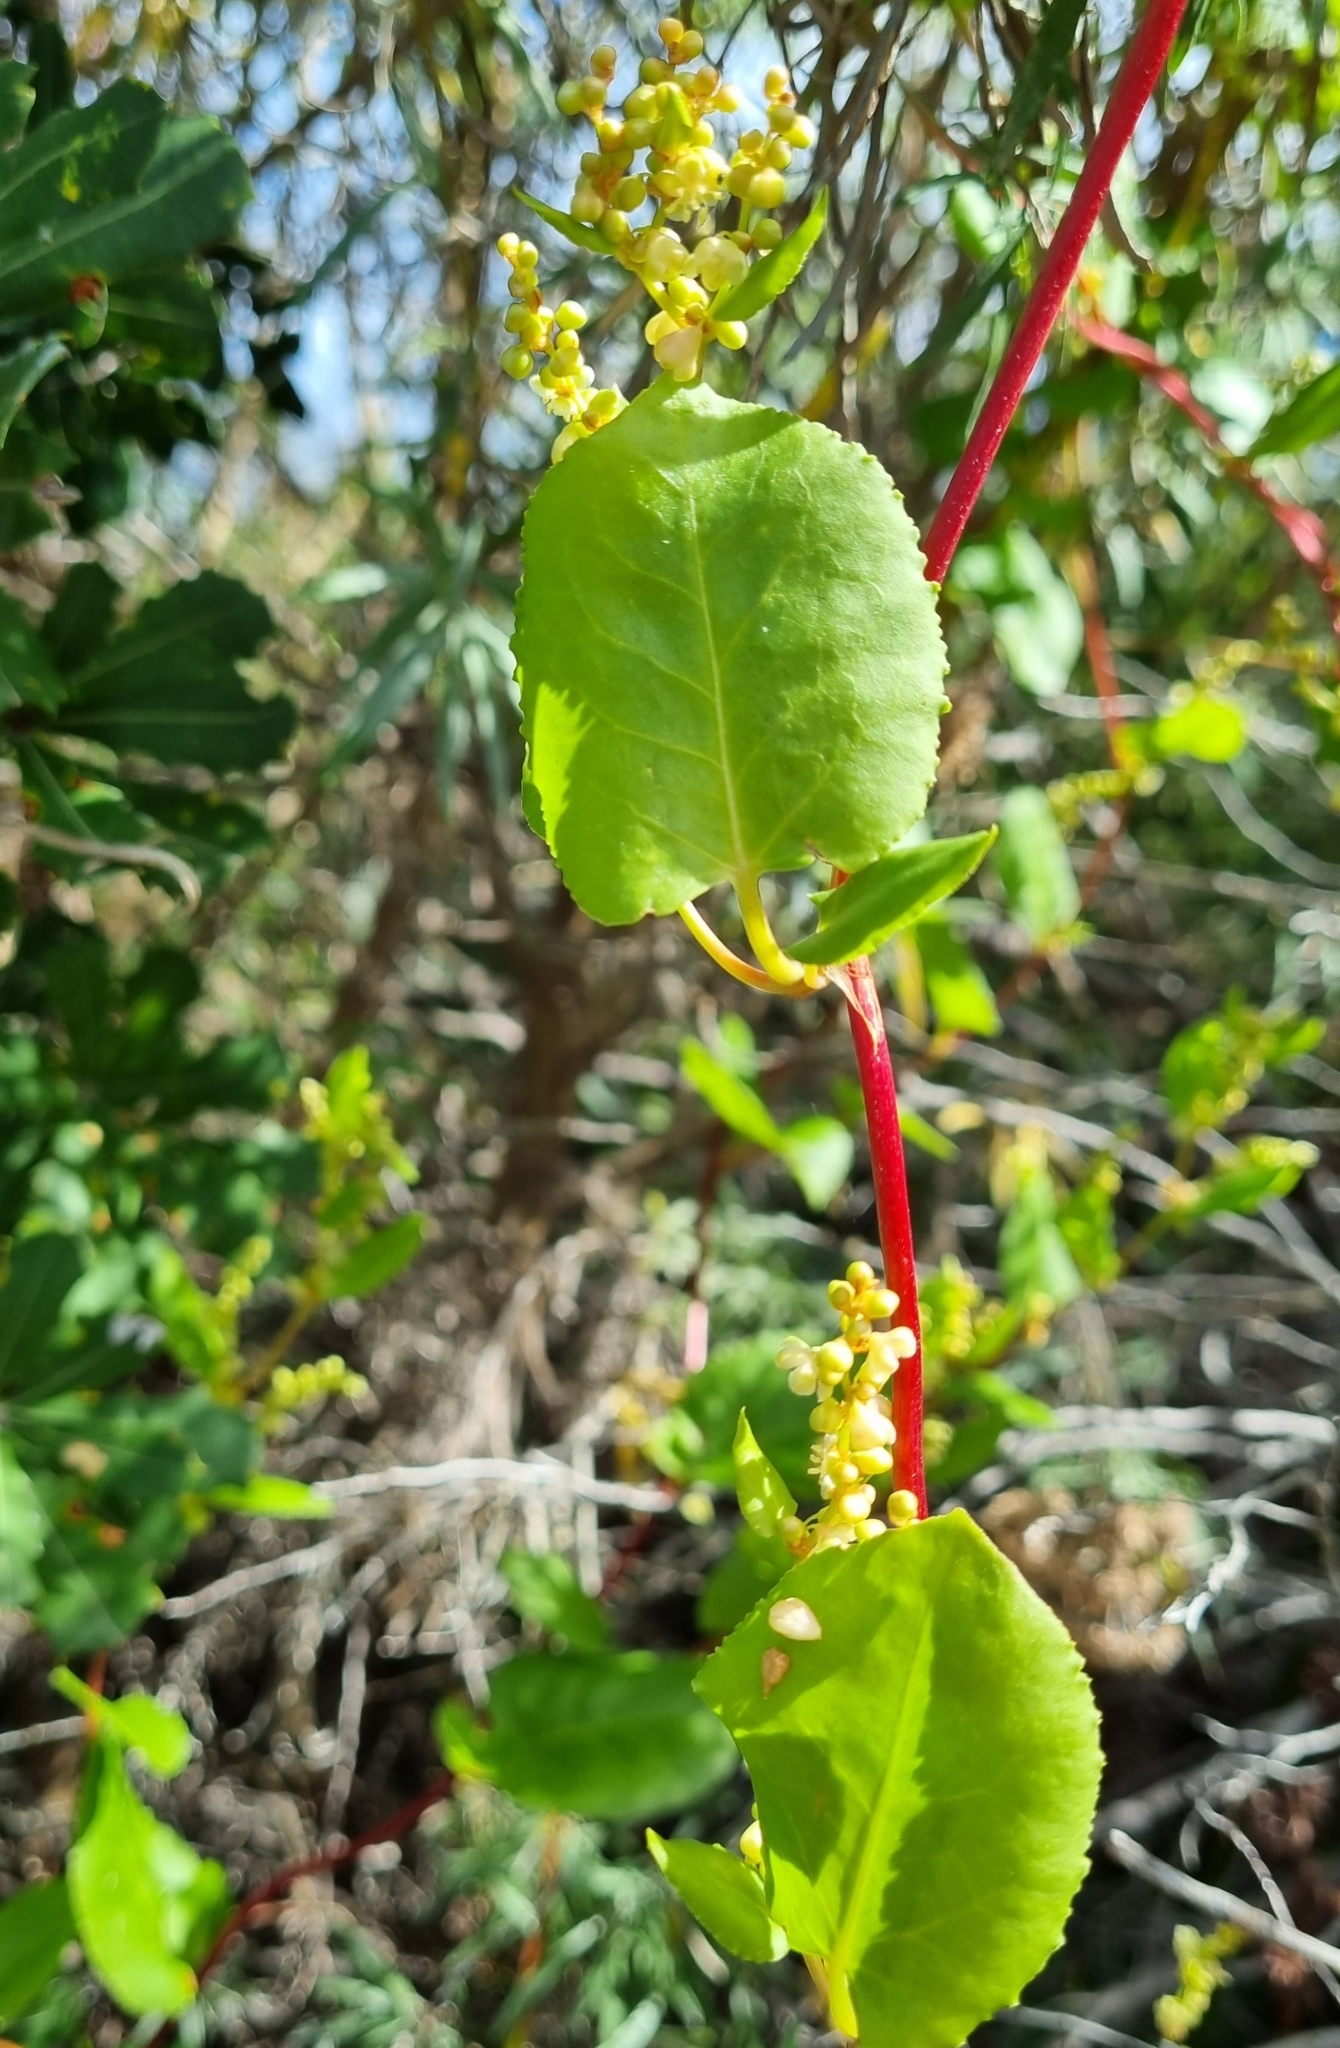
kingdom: Plantae
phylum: Tracheophyta
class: Magnoliopsida
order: Caryophyllales
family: Polygonaceae
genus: Muehlenbeckia
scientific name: Muehlenbeckia adpressa
